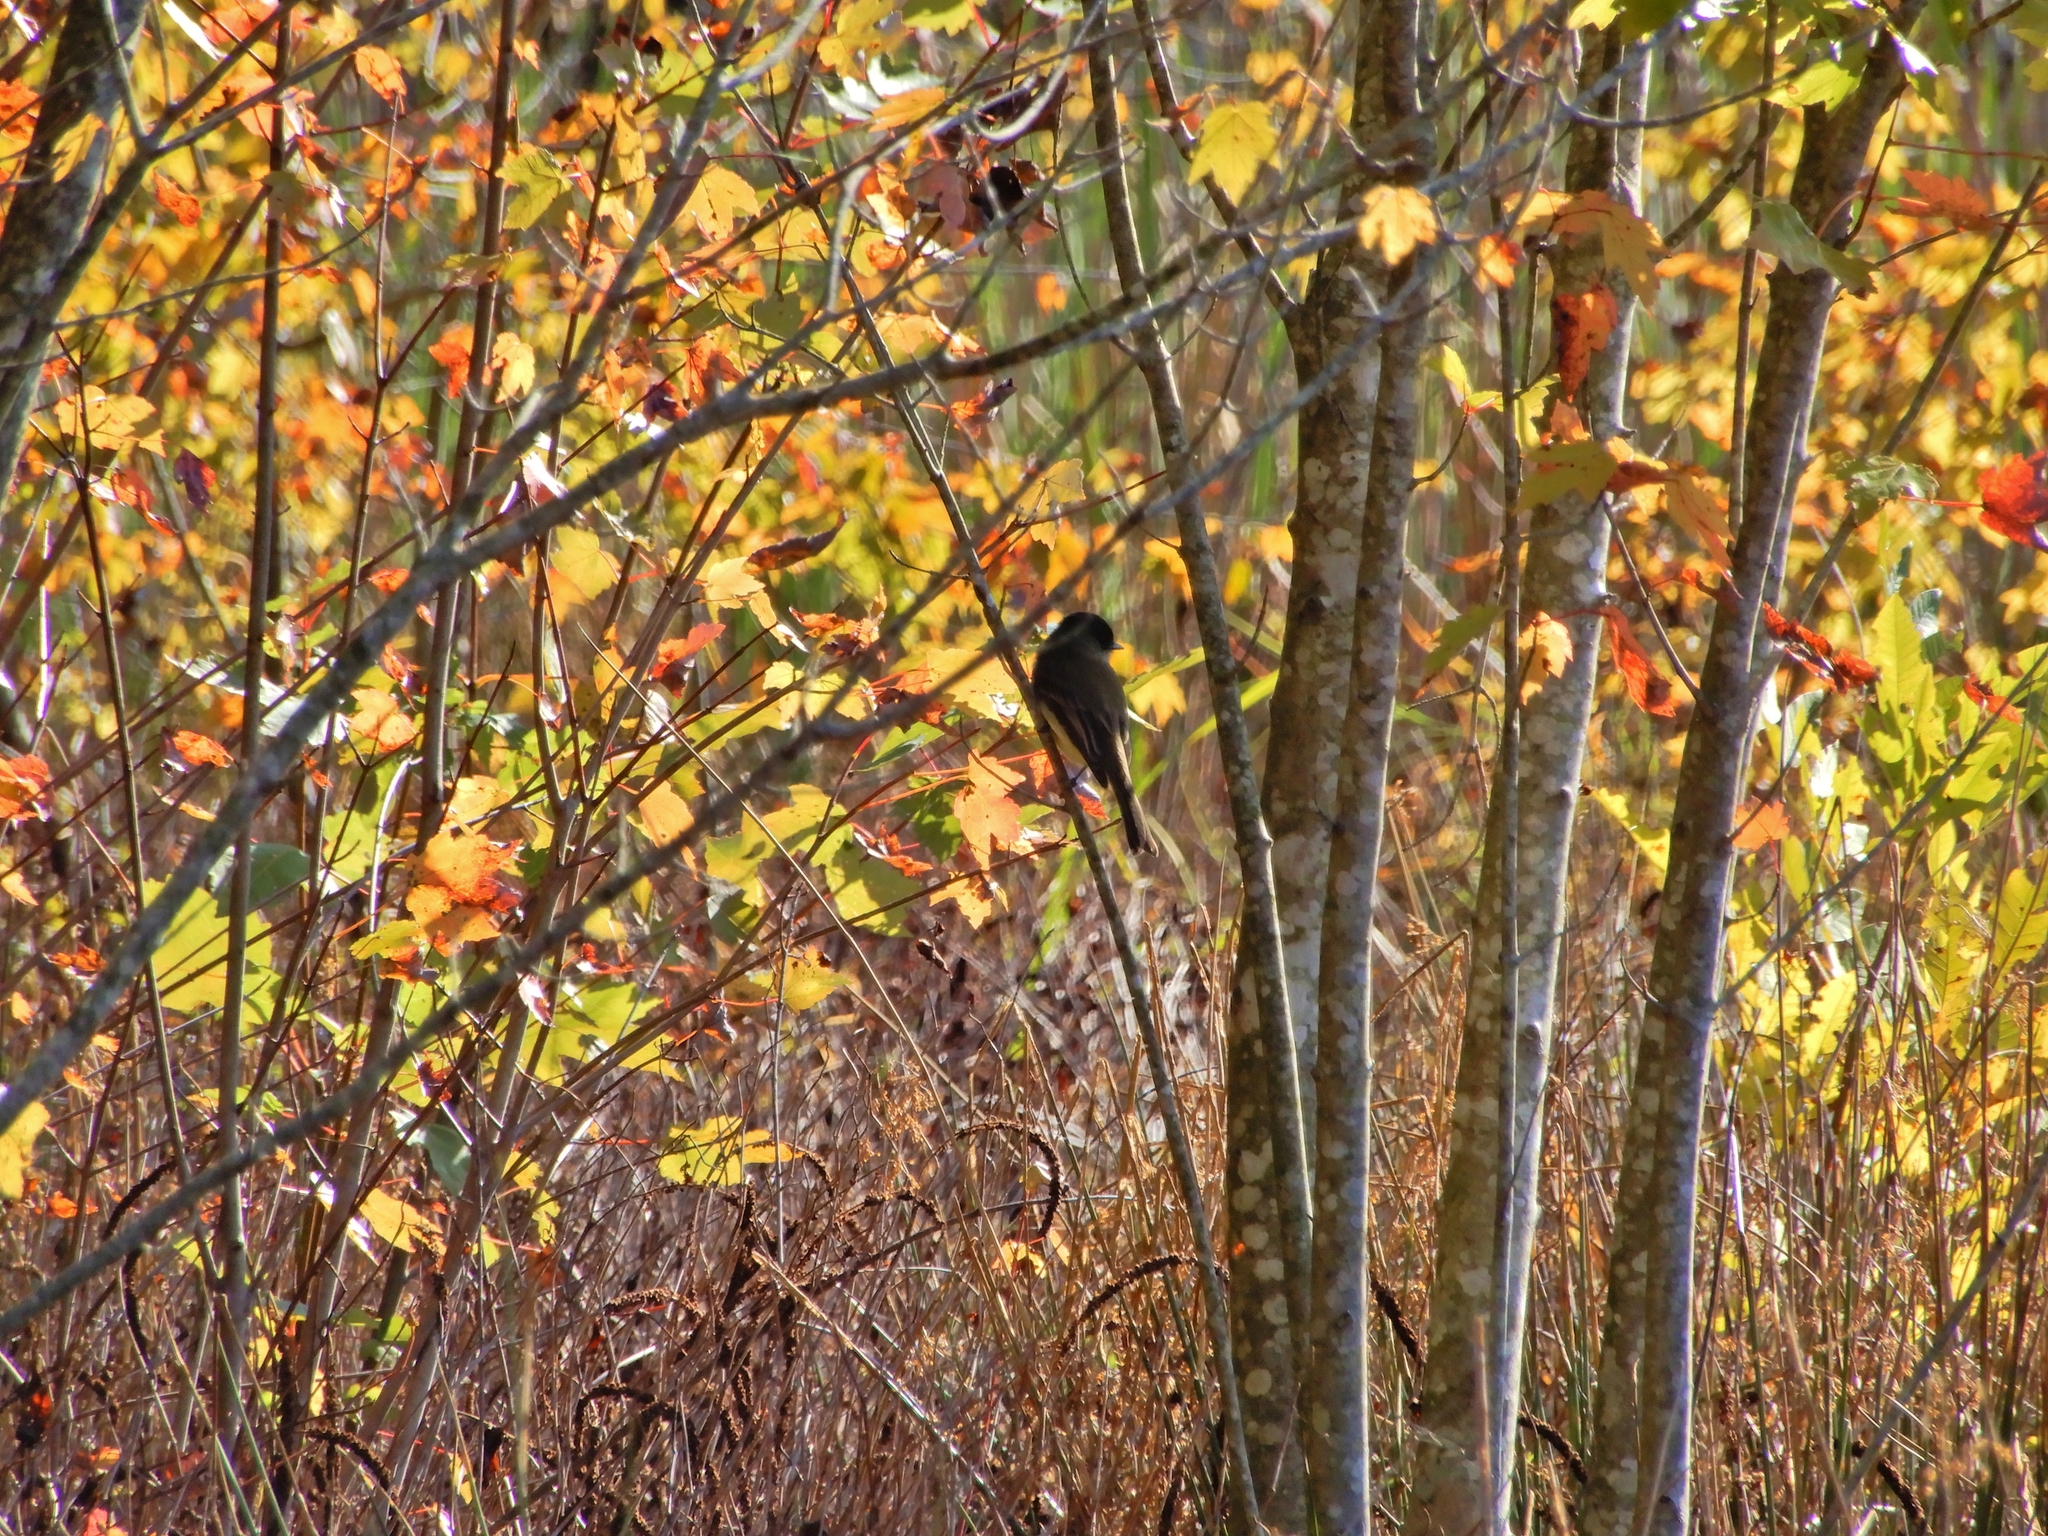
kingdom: Animalia
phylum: Chordata
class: Aves
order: Passeriformes
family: Tyrannidae
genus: Sayornis
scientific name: Sayornis phoebe
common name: Eastern phoebe
